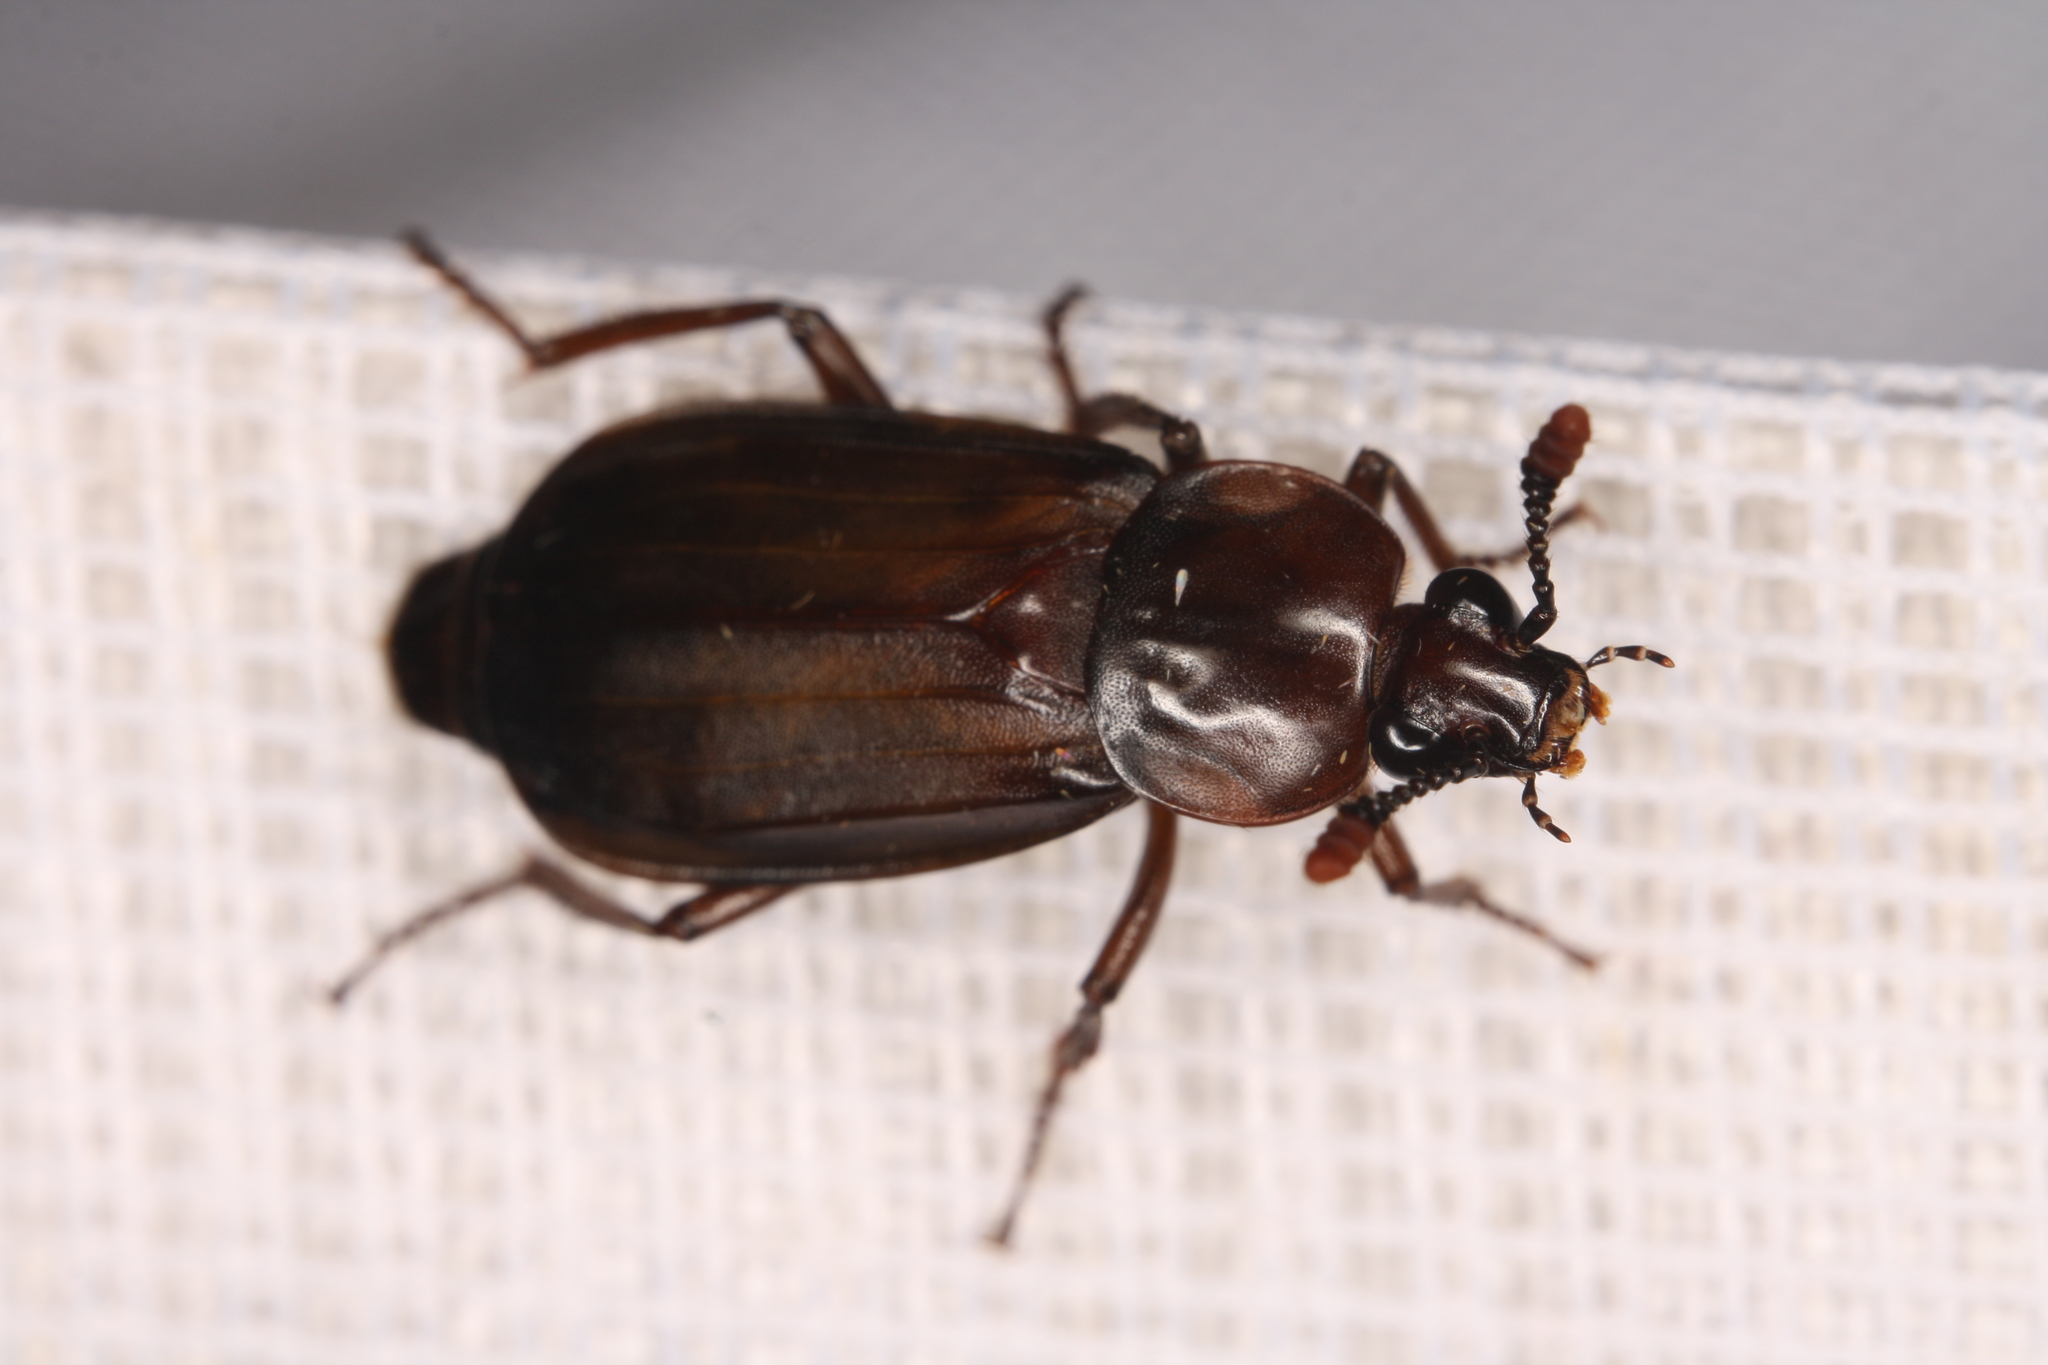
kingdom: Animalia
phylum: Arthropoda
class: Insecta
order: Coleoptera
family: Staphylinidae
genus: Necrodes
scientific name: Necrodes littoralis
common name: Shore sexton beetle
